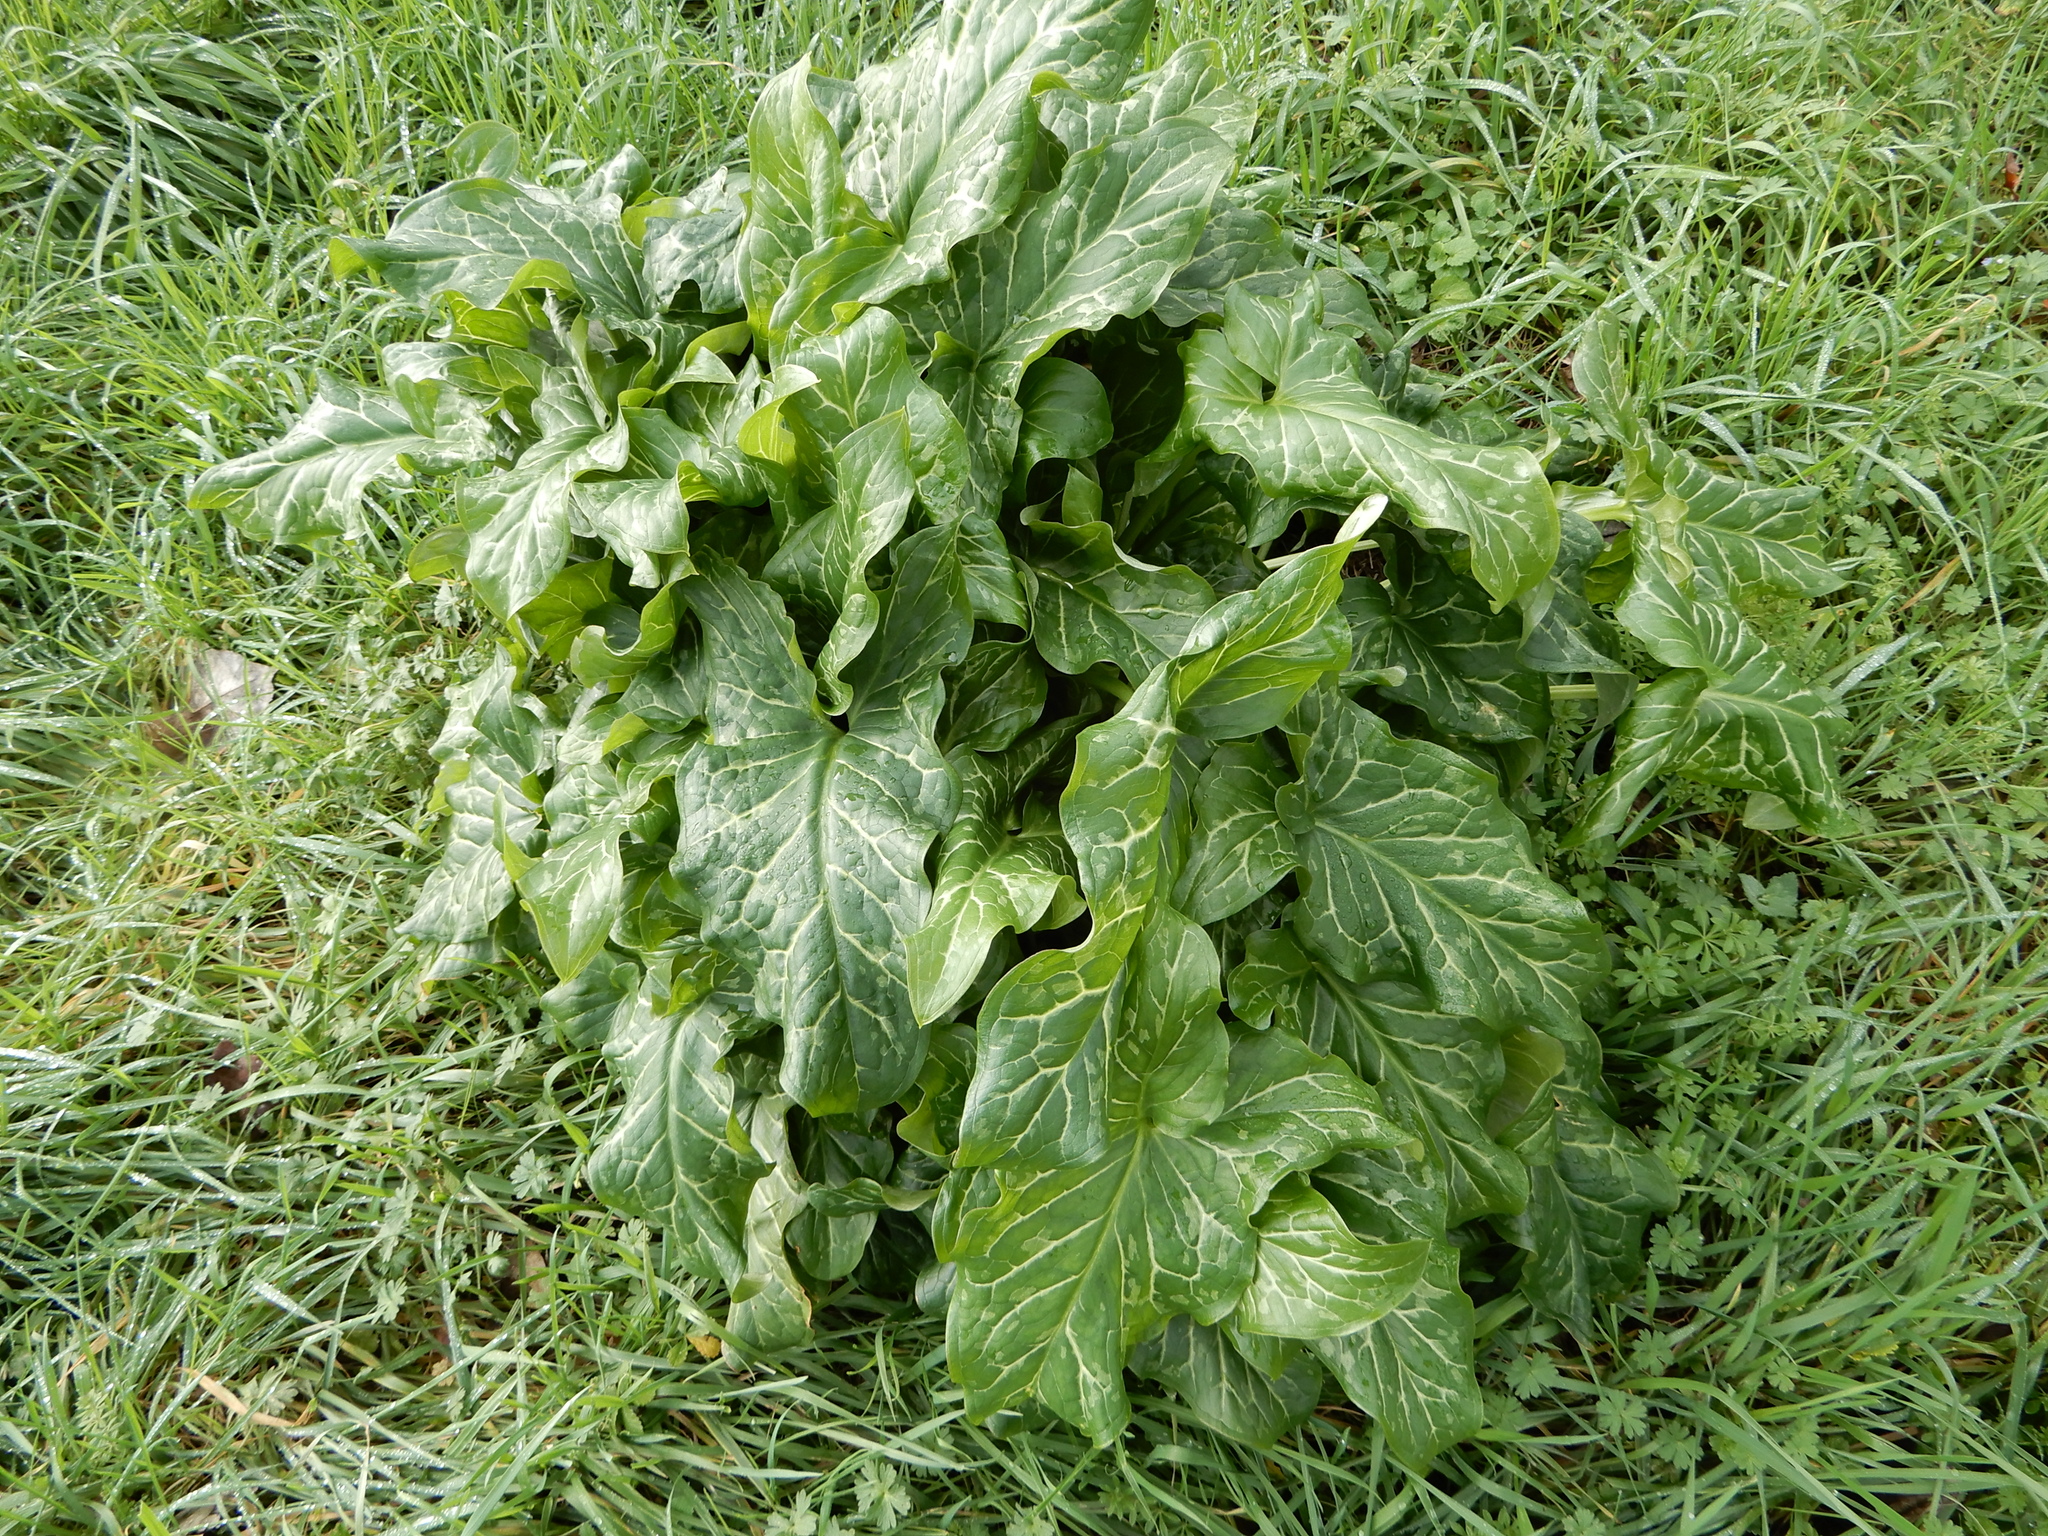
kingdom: Plantae
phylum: Tracheophyta
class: Liliopsida
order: Alismatales
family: Araceae
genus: Arum
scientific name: Arum italicum
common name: Italian lords-and-ladies
